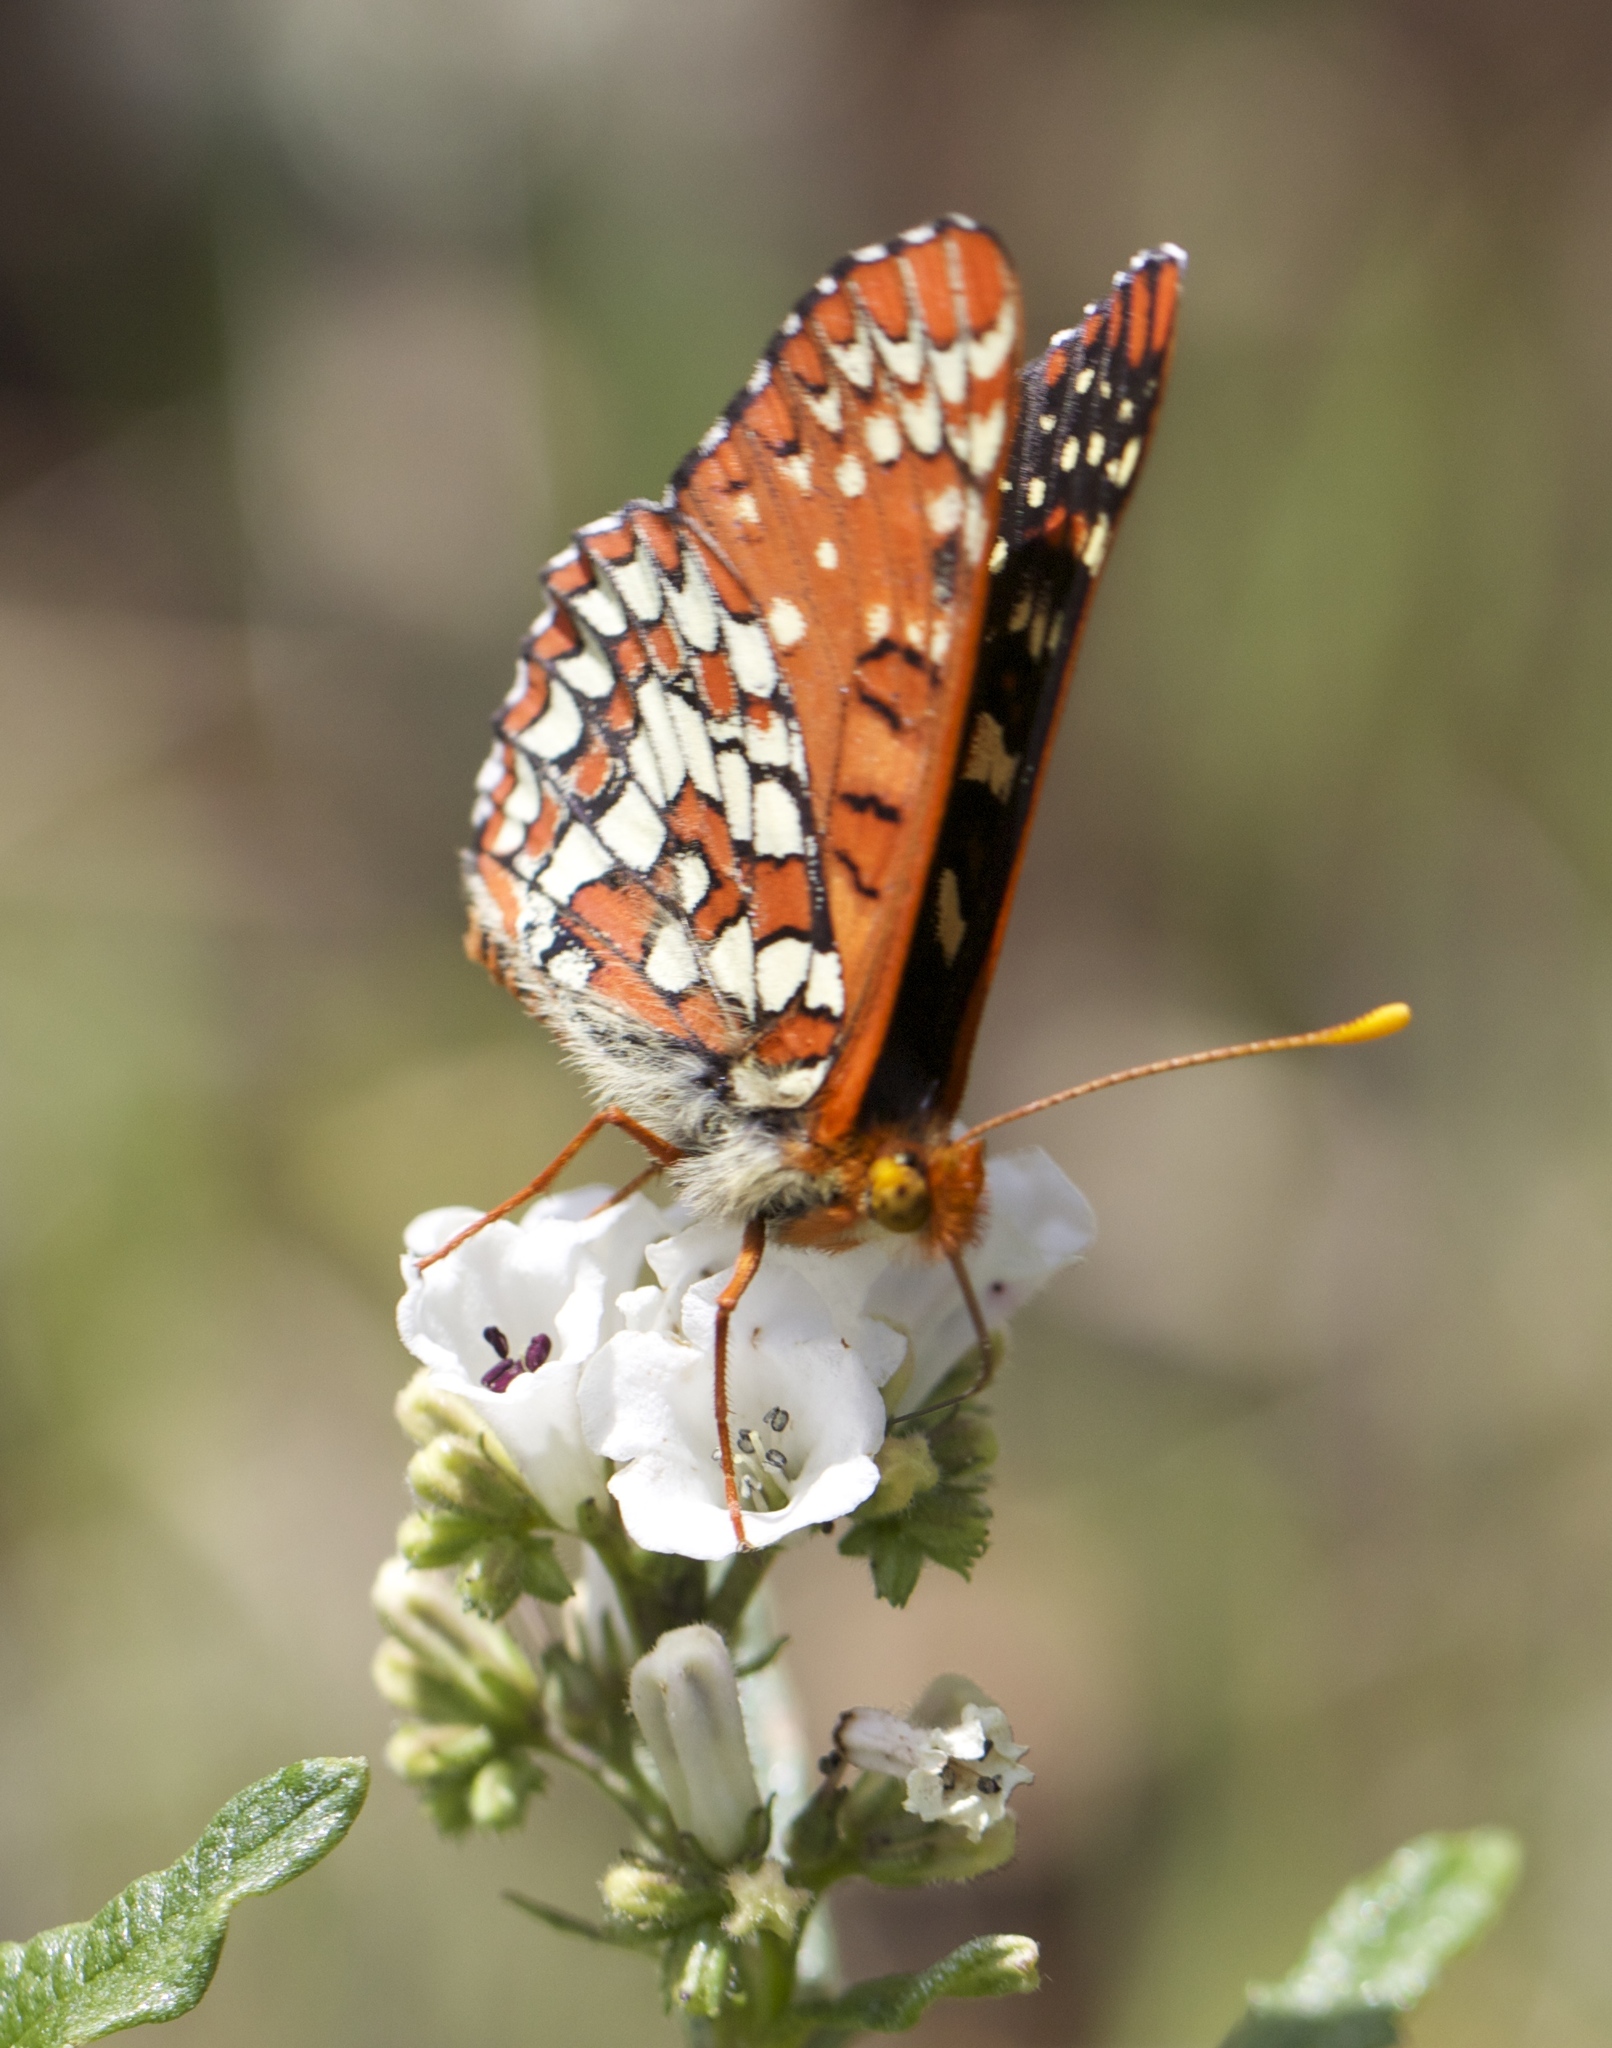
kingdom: Animalia
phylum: Arthropoda
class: Insecta
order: Lepidoptera
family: Nymphalidae
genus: Occidryas
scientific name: Occidryas chalcedona
